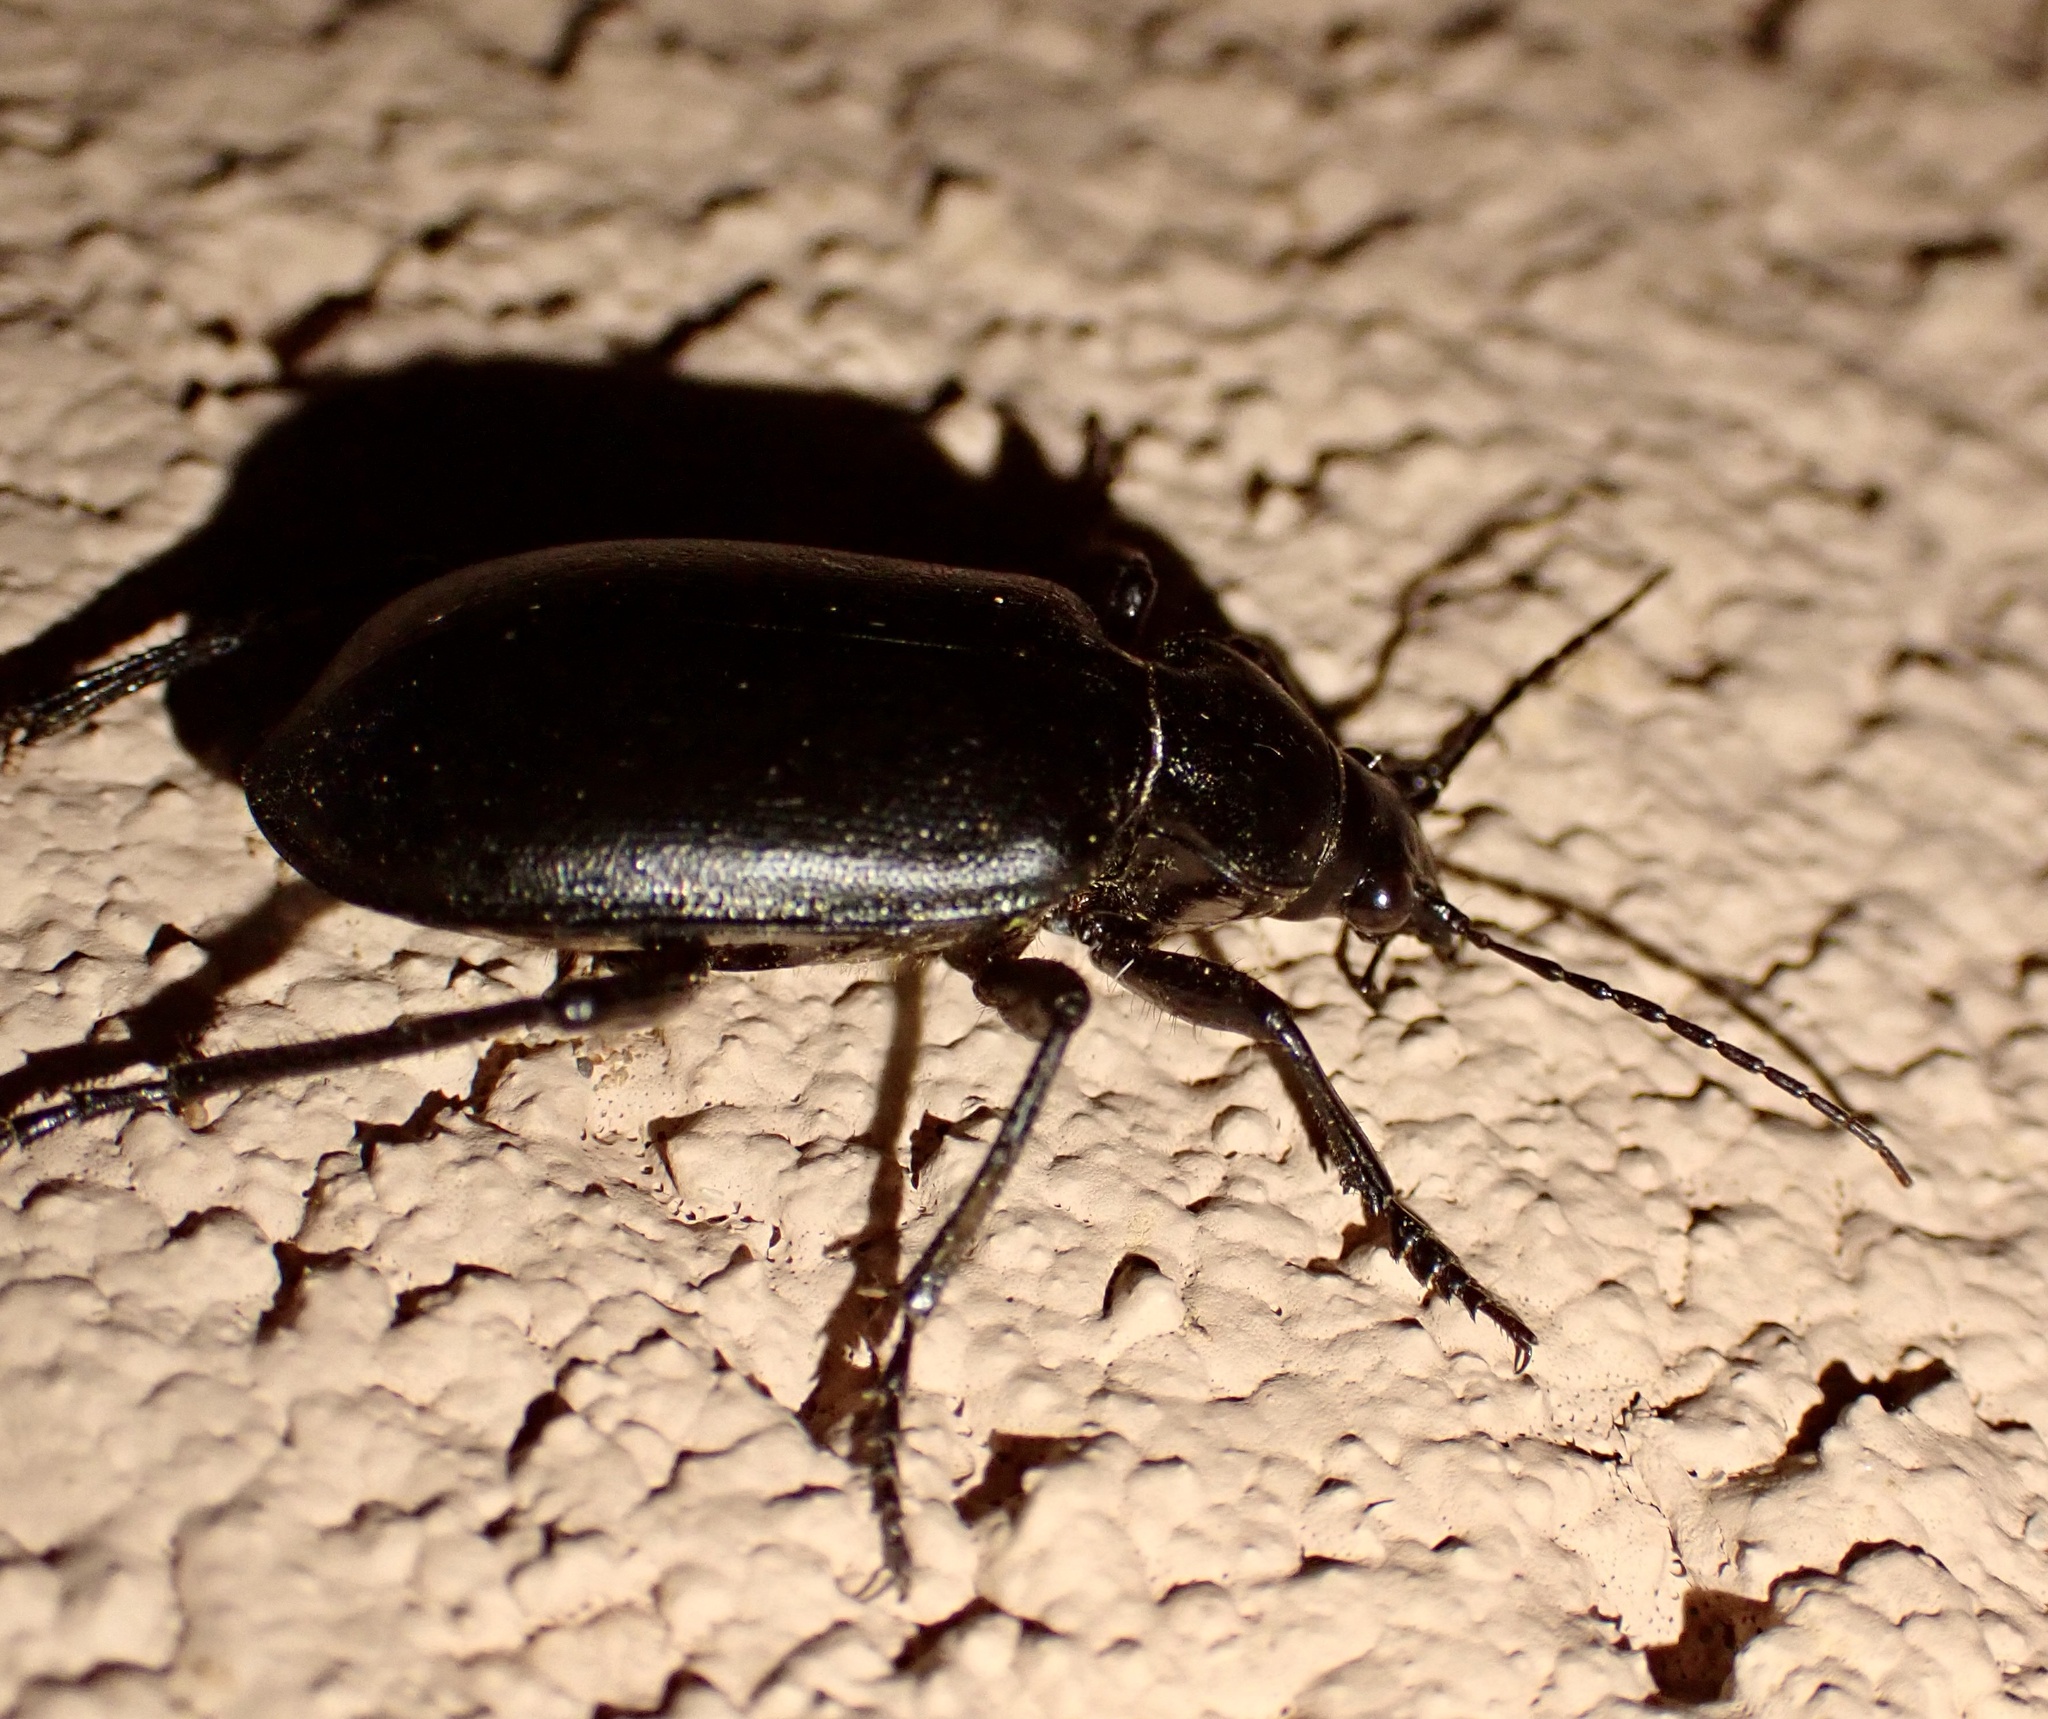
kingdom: Animalia
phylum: Arthropoda
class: Insecta
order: Coleoptera
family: Carabidae
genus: Calosoma
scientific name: Calosoma olivieri
